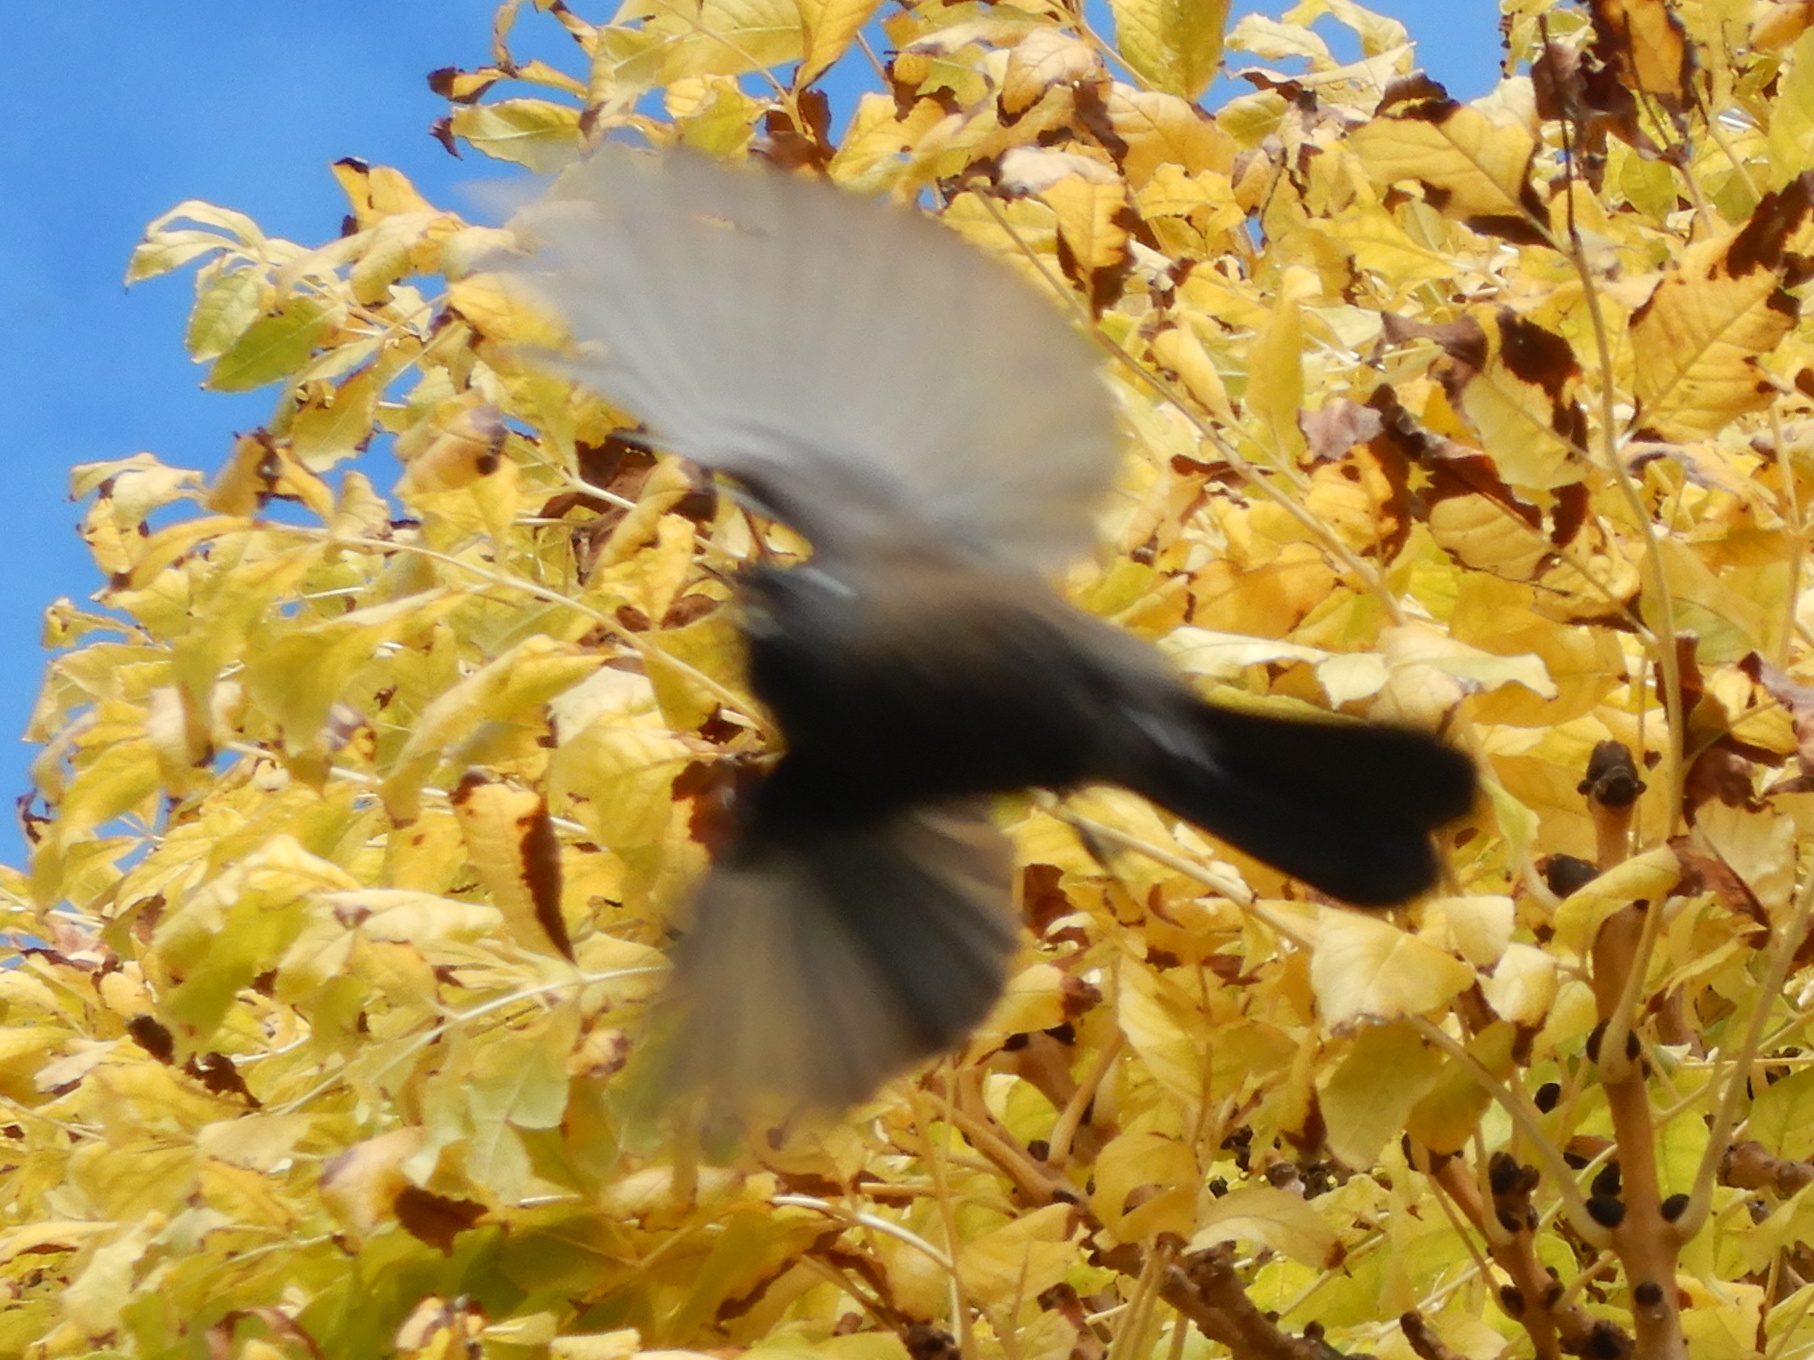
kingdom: Animalia
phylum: Chordata
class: Aves
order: Passeriformes
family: Rhipiduridae
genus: Rhipidura
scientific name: Rhipidura fuliginosa
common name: New zealand fantail
